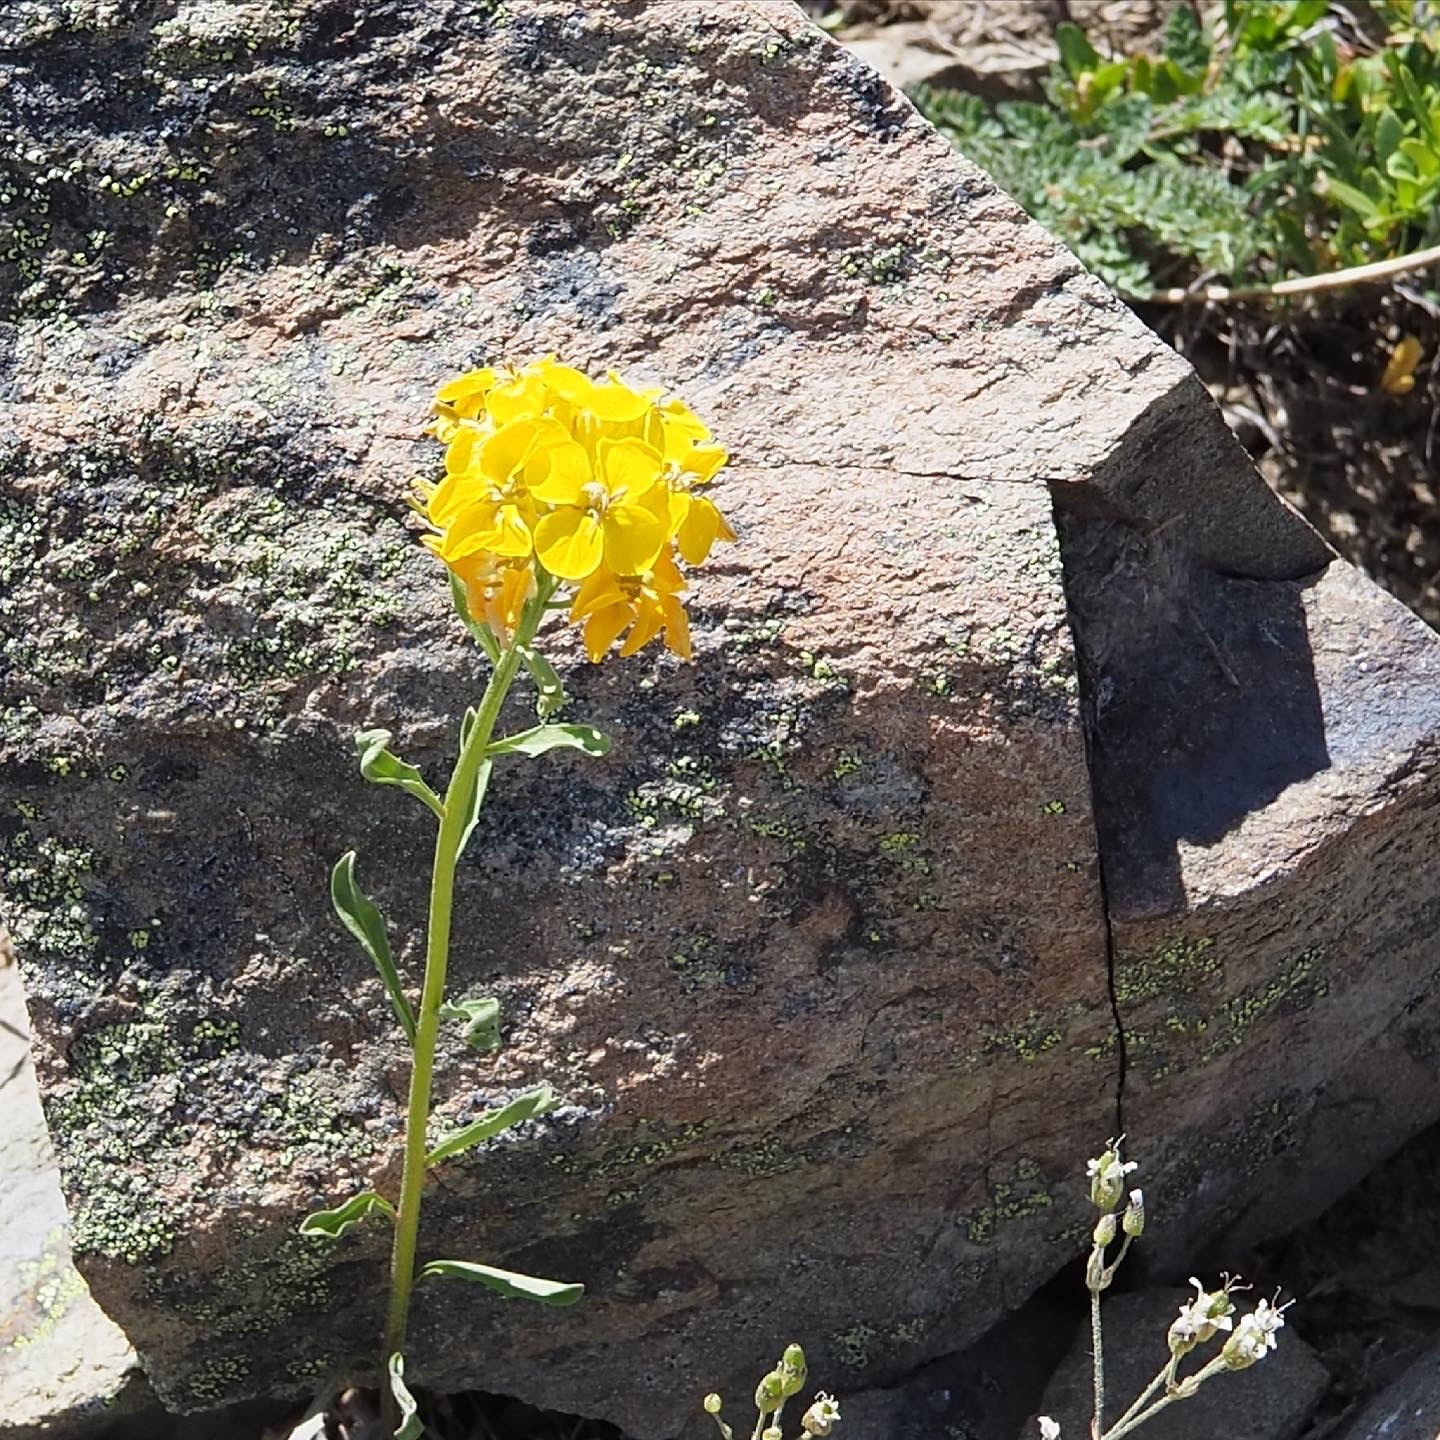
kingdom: Plantae
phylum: Tracheophyta
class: Magnoliopsida
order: Brassicales
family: Brassicaceae
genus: Erysimum
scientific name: Erysimum capitatum
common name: Western wallflower
